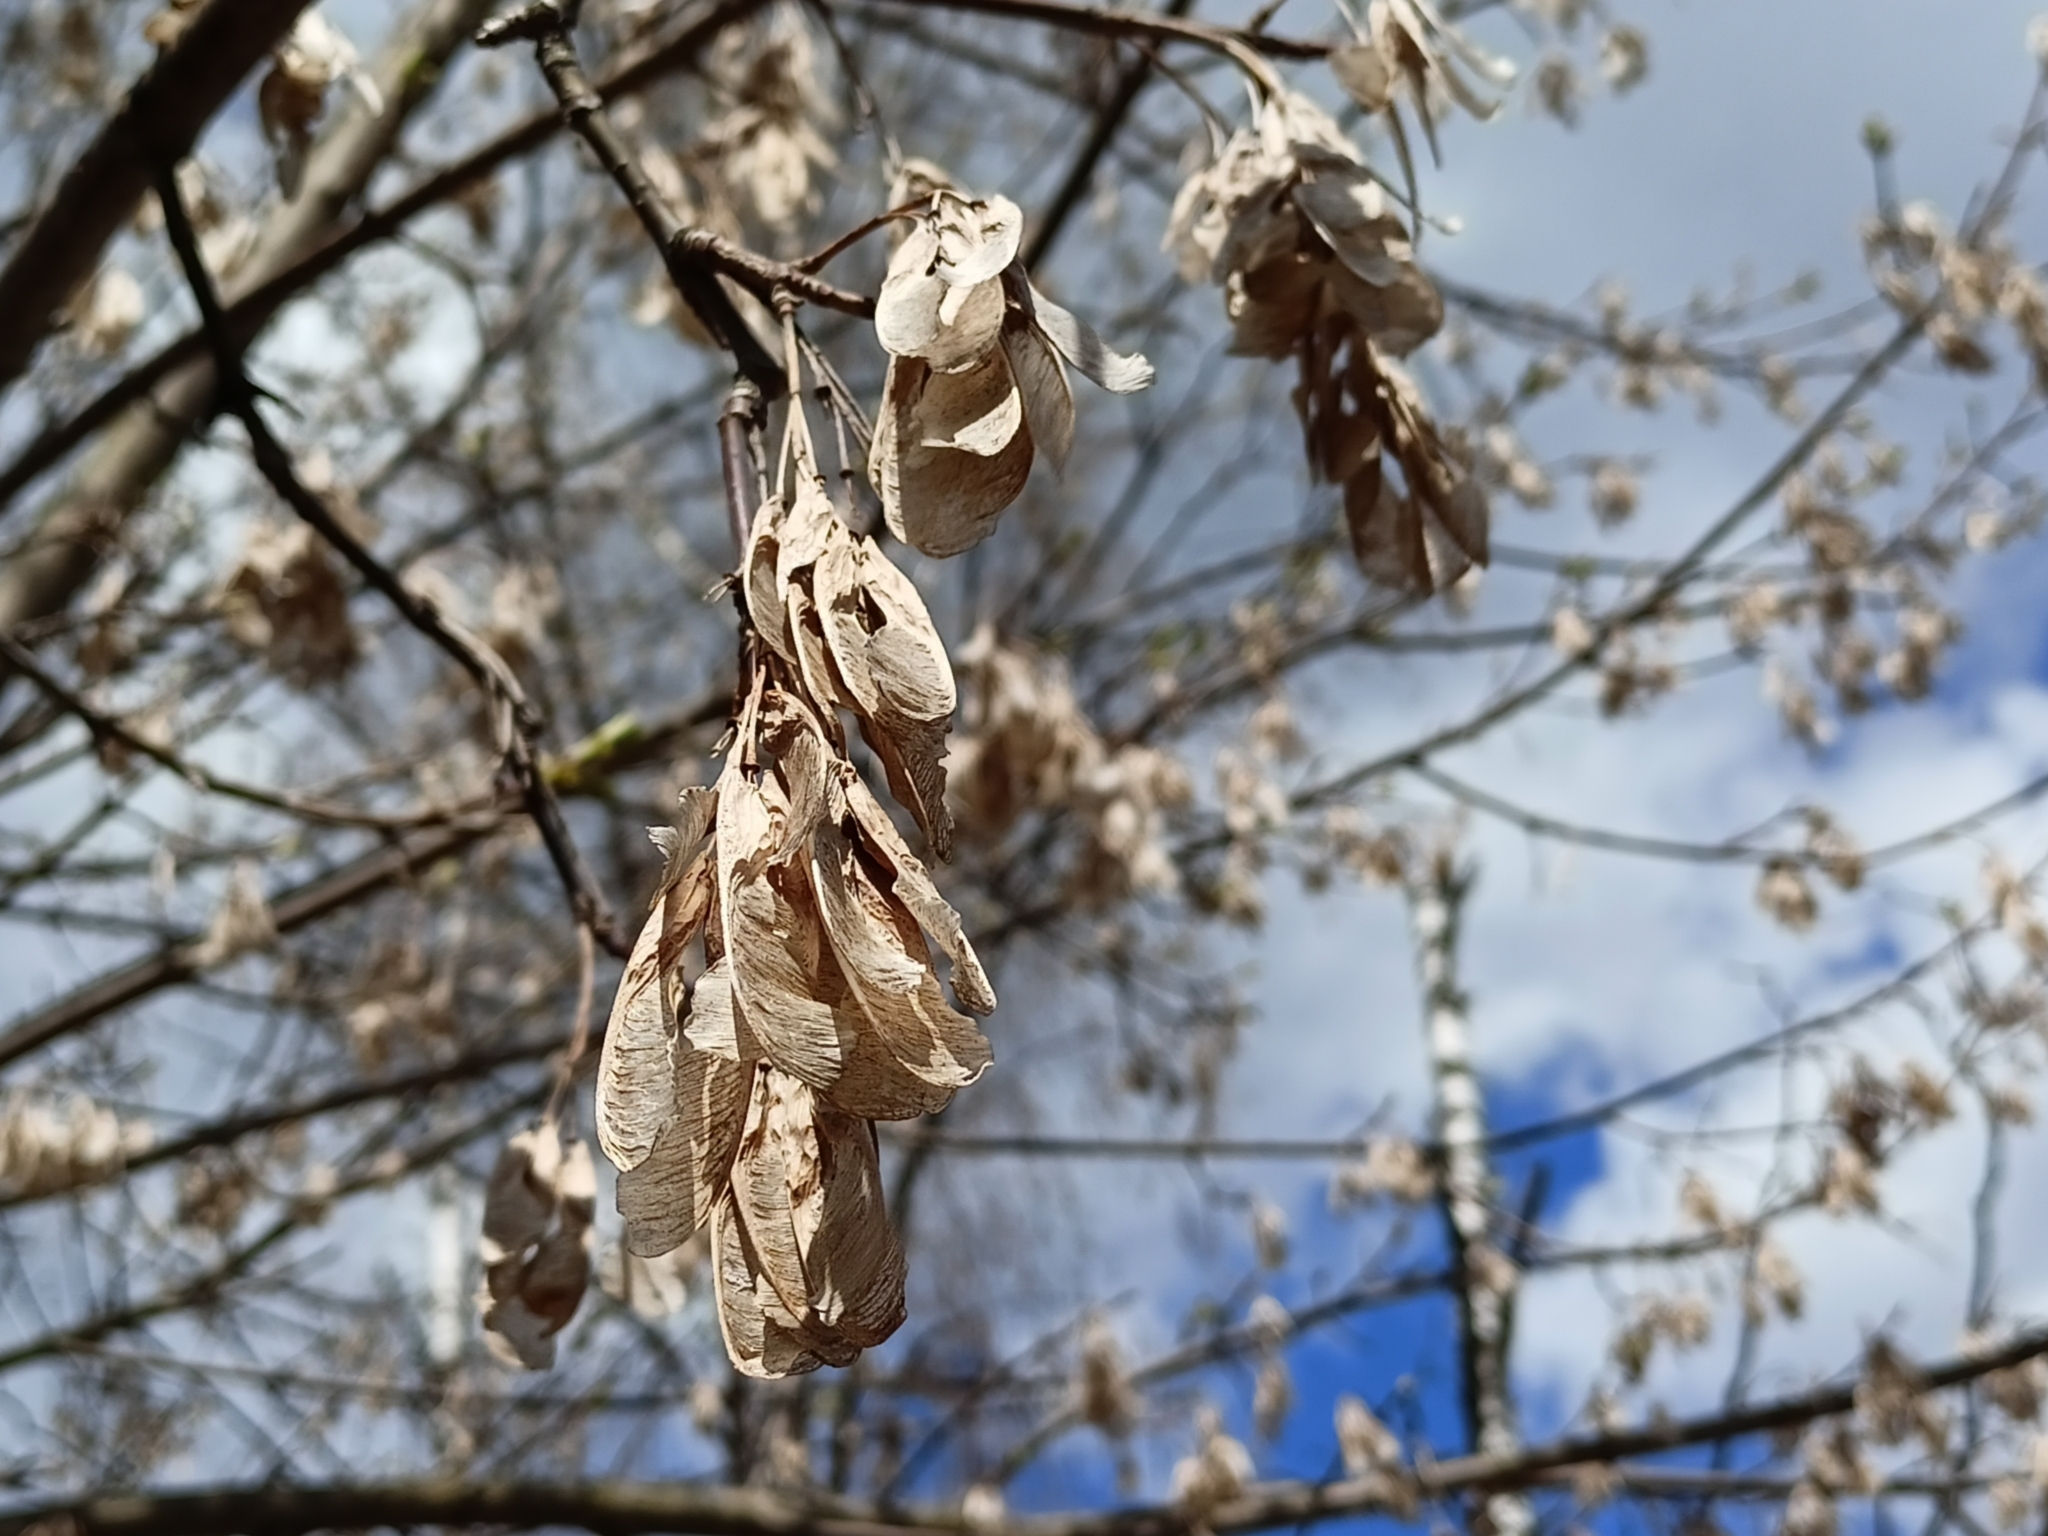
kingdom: Plantae
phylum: Tracheophyta
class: Magnoliopsida
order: Sapindales
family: Sapindaceae
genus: Acer
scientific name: Acer negundo
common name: Ashleaf maple
